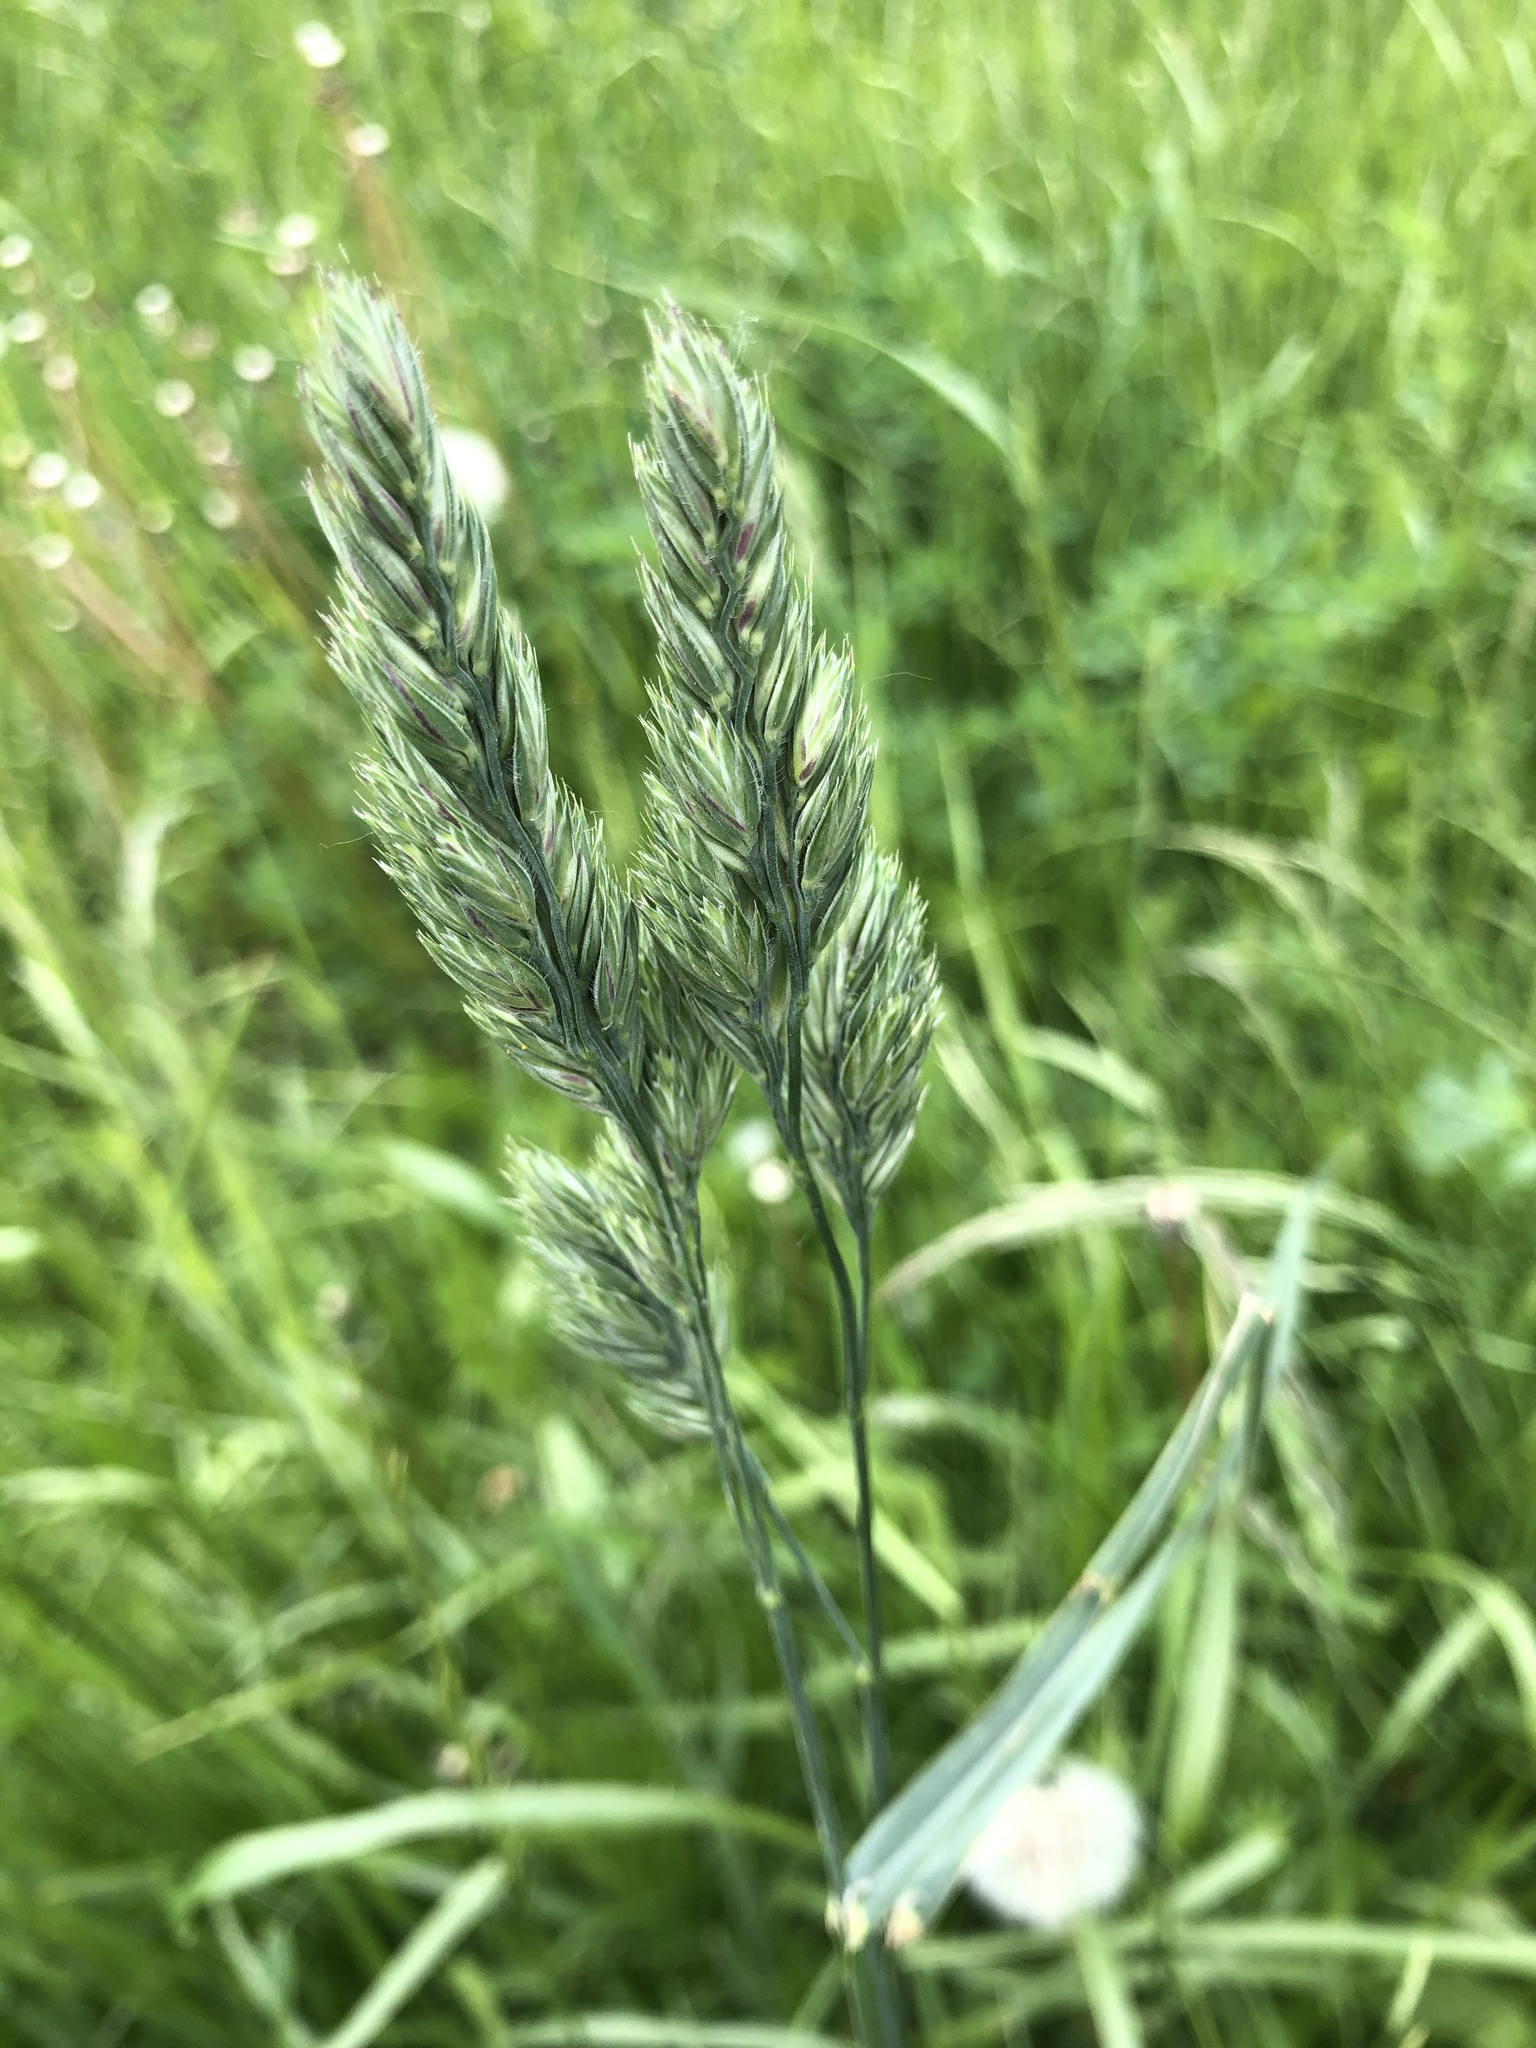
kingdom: Plantae
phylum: Tracheophyta
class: Liliopsida
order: Poales
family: Poaceae
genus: Dactylis
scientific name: Dactylis glomerata
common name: Orchardgrass
